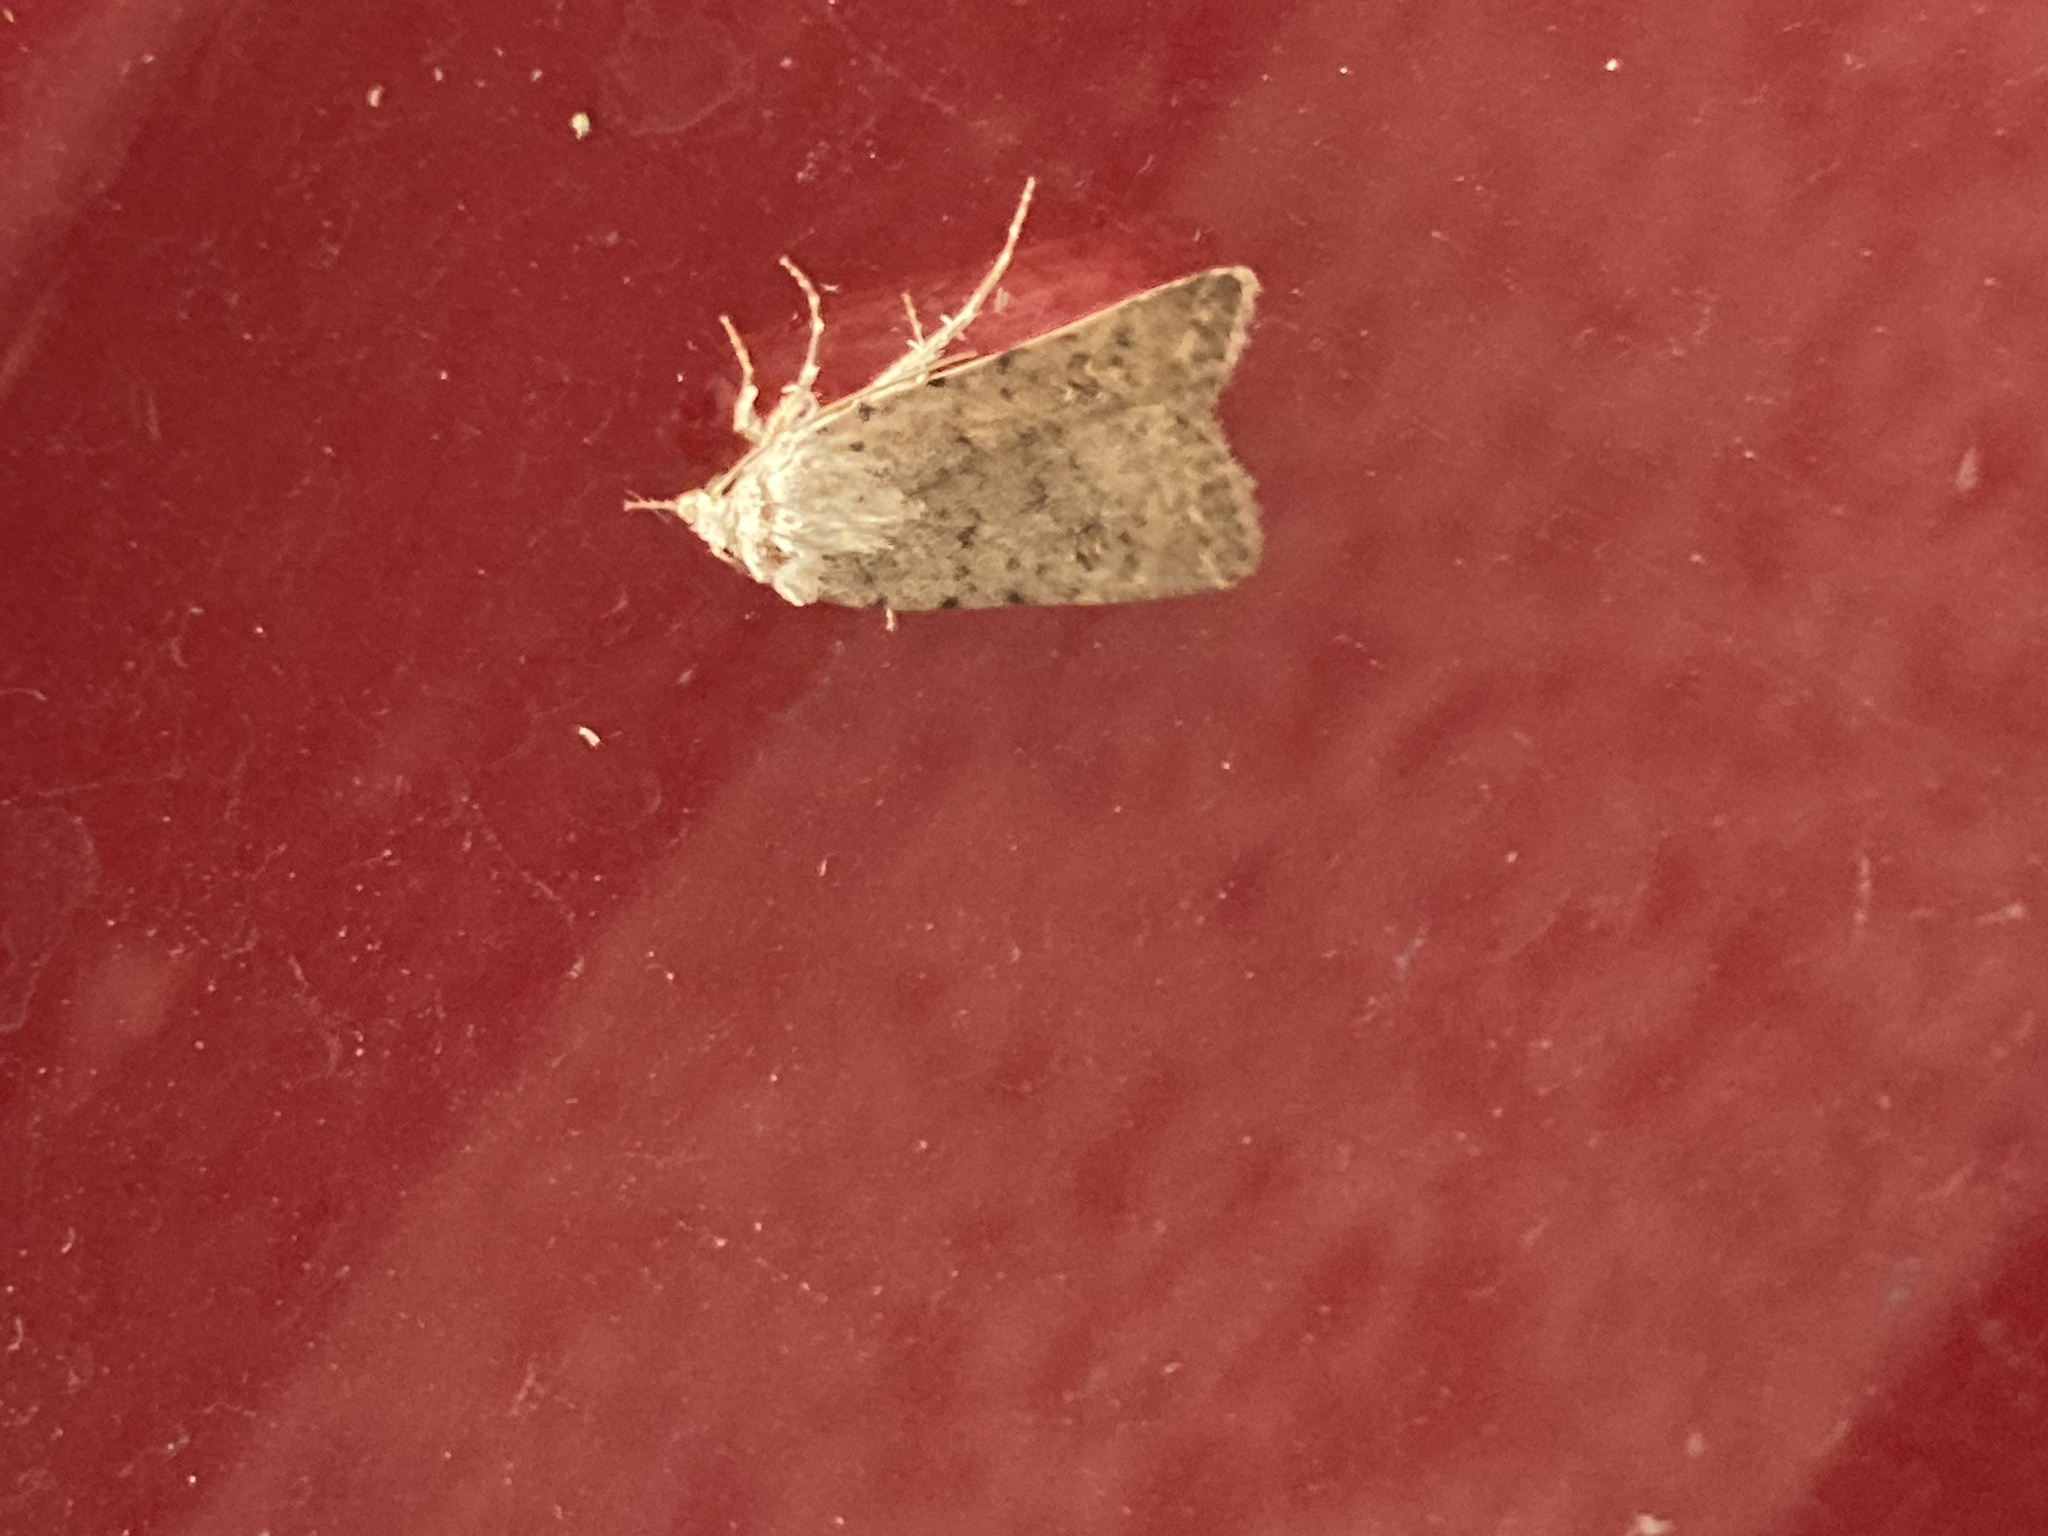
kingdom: Animalia
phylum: Arthropoda
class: Insecta
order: Lepidoptera
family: Noctuidae
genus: Caradrina
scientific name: Caradrina clavipalpis
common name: Pale mottled willow
